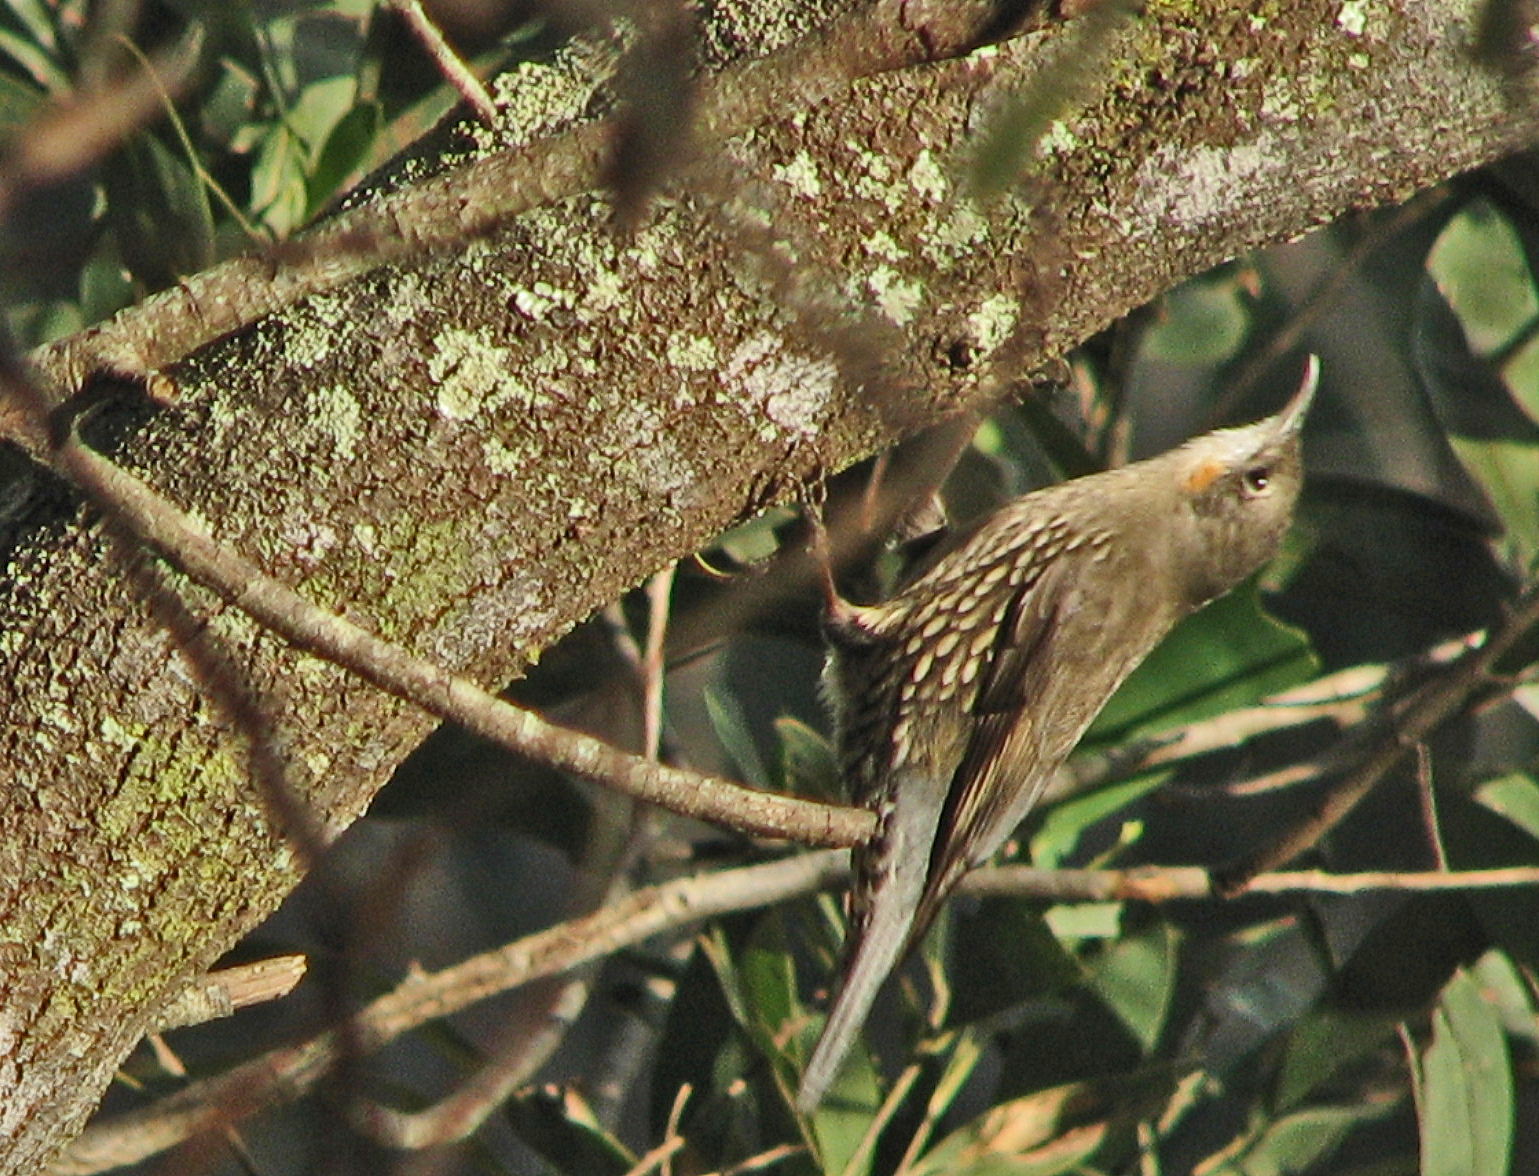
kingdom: Animalia
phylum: Chordata
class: Aves
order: Passeriformes
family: Climacteridae
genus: Cormobates
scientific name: Cormobates leucophaea
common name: White-throated treecreeper
